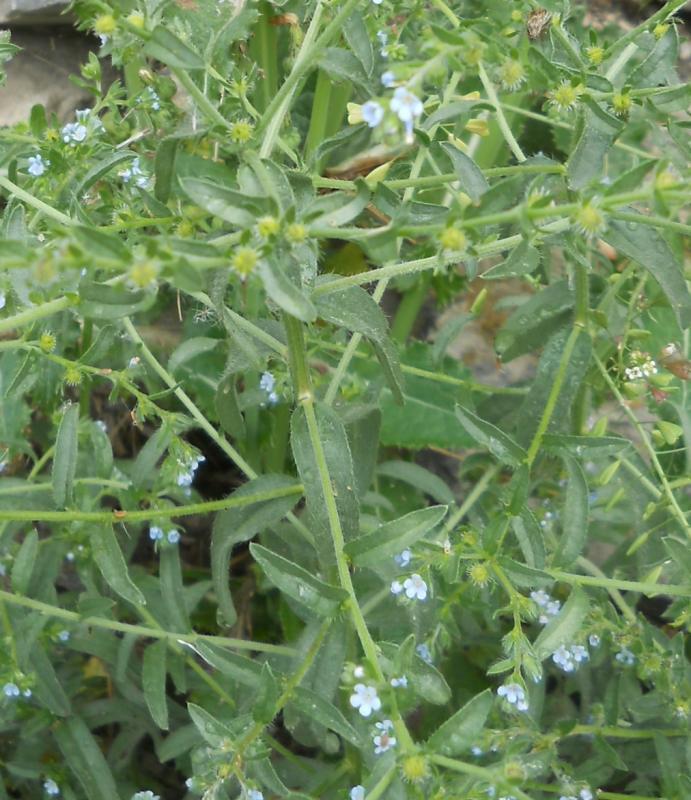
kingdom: Plantae
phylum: Tracheophyta
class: Magnoliopsida
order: Boraginales
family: Boraginaceae
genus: Lappula
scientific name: Lappula squarrosa
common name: European stickseed
